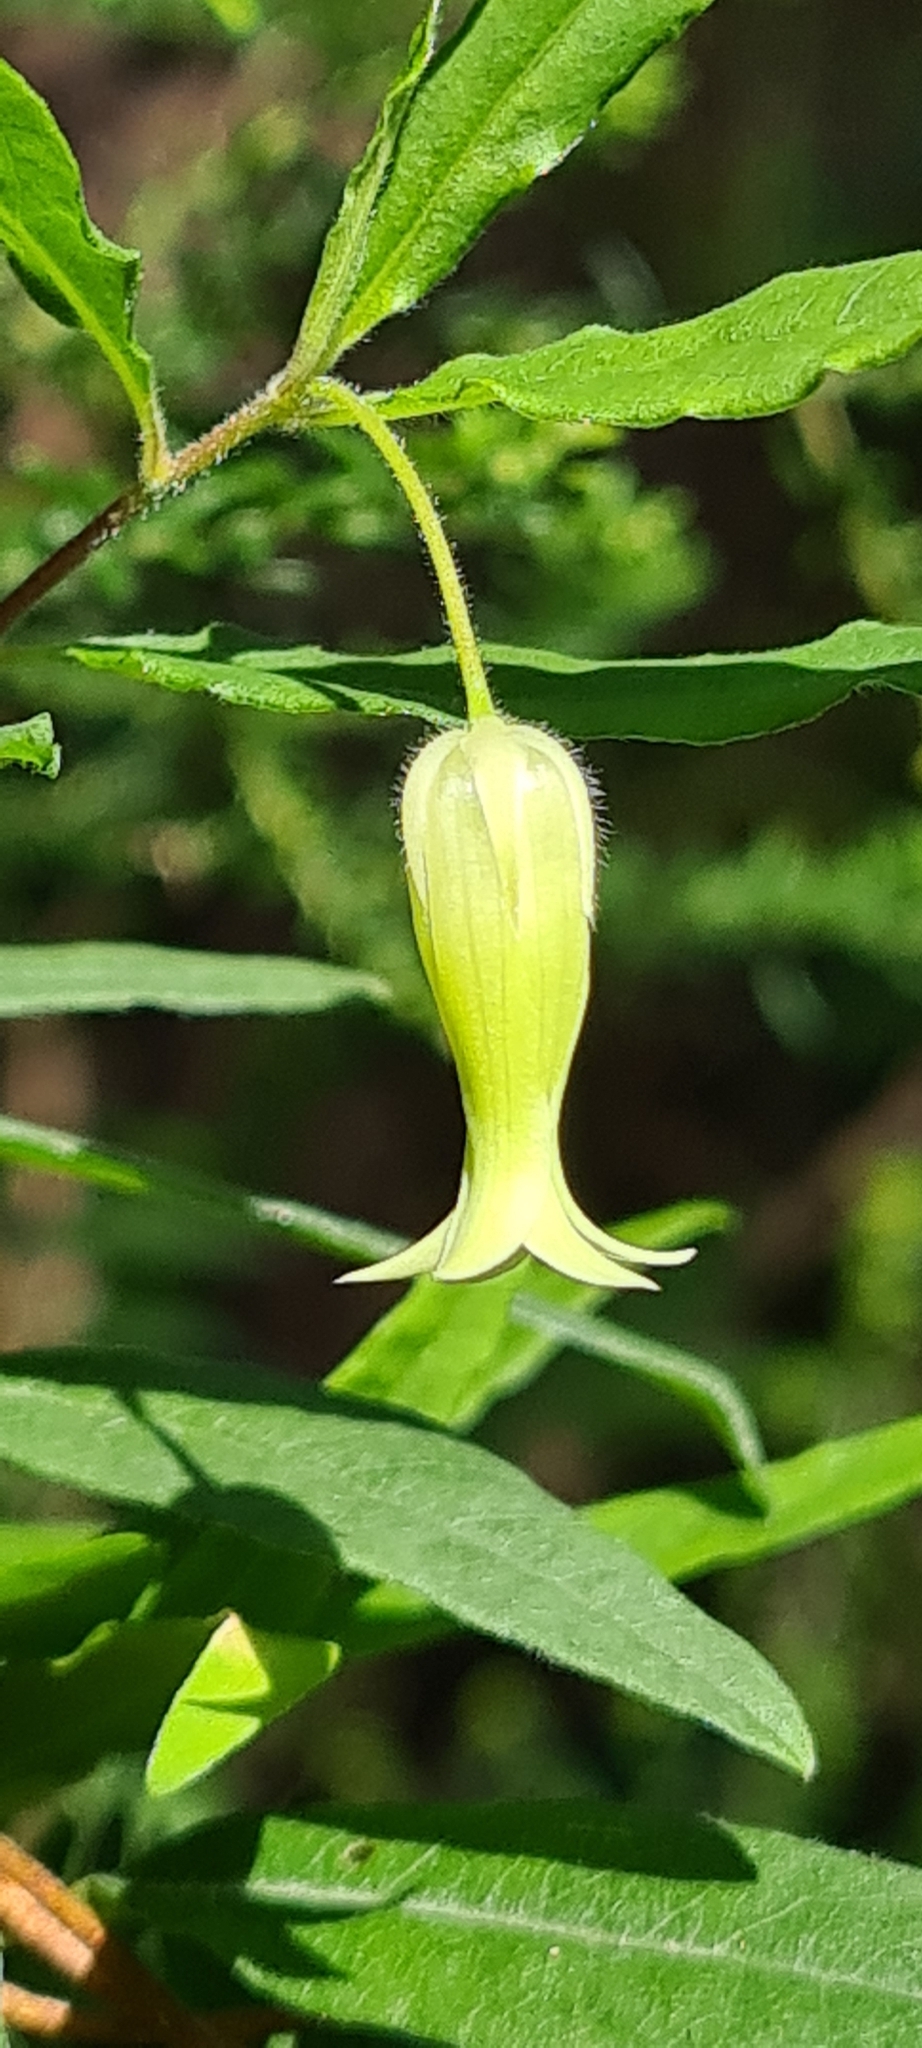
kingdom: Plantae
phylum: Tracheophyta
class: Magnoliopsida
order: Apiales
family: Pittosporaceae
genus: Billardiera
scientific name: Billardiera scandens
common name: Apple-berry
